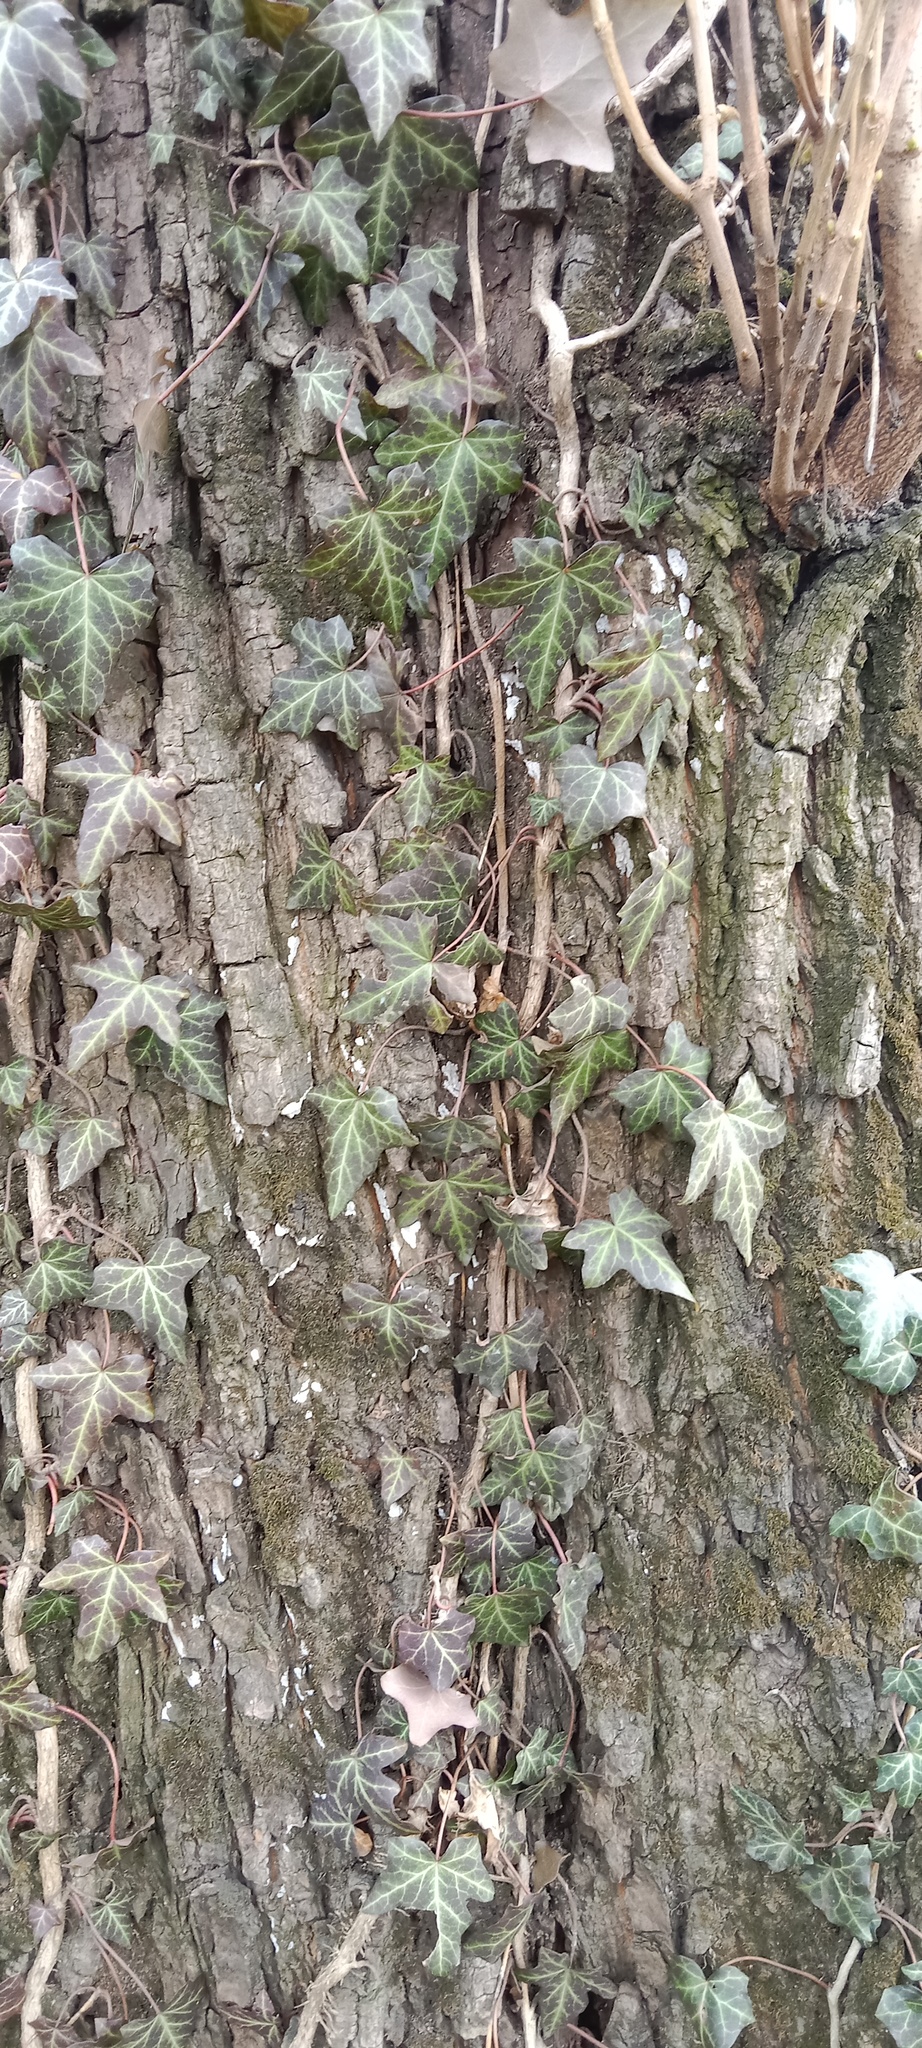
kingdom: Plantae
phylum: Tracheophyta
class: Magnoliopsida
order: Apiales
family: Araliaceae
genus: Hedera
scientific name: Hedera helix
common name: Ivy
